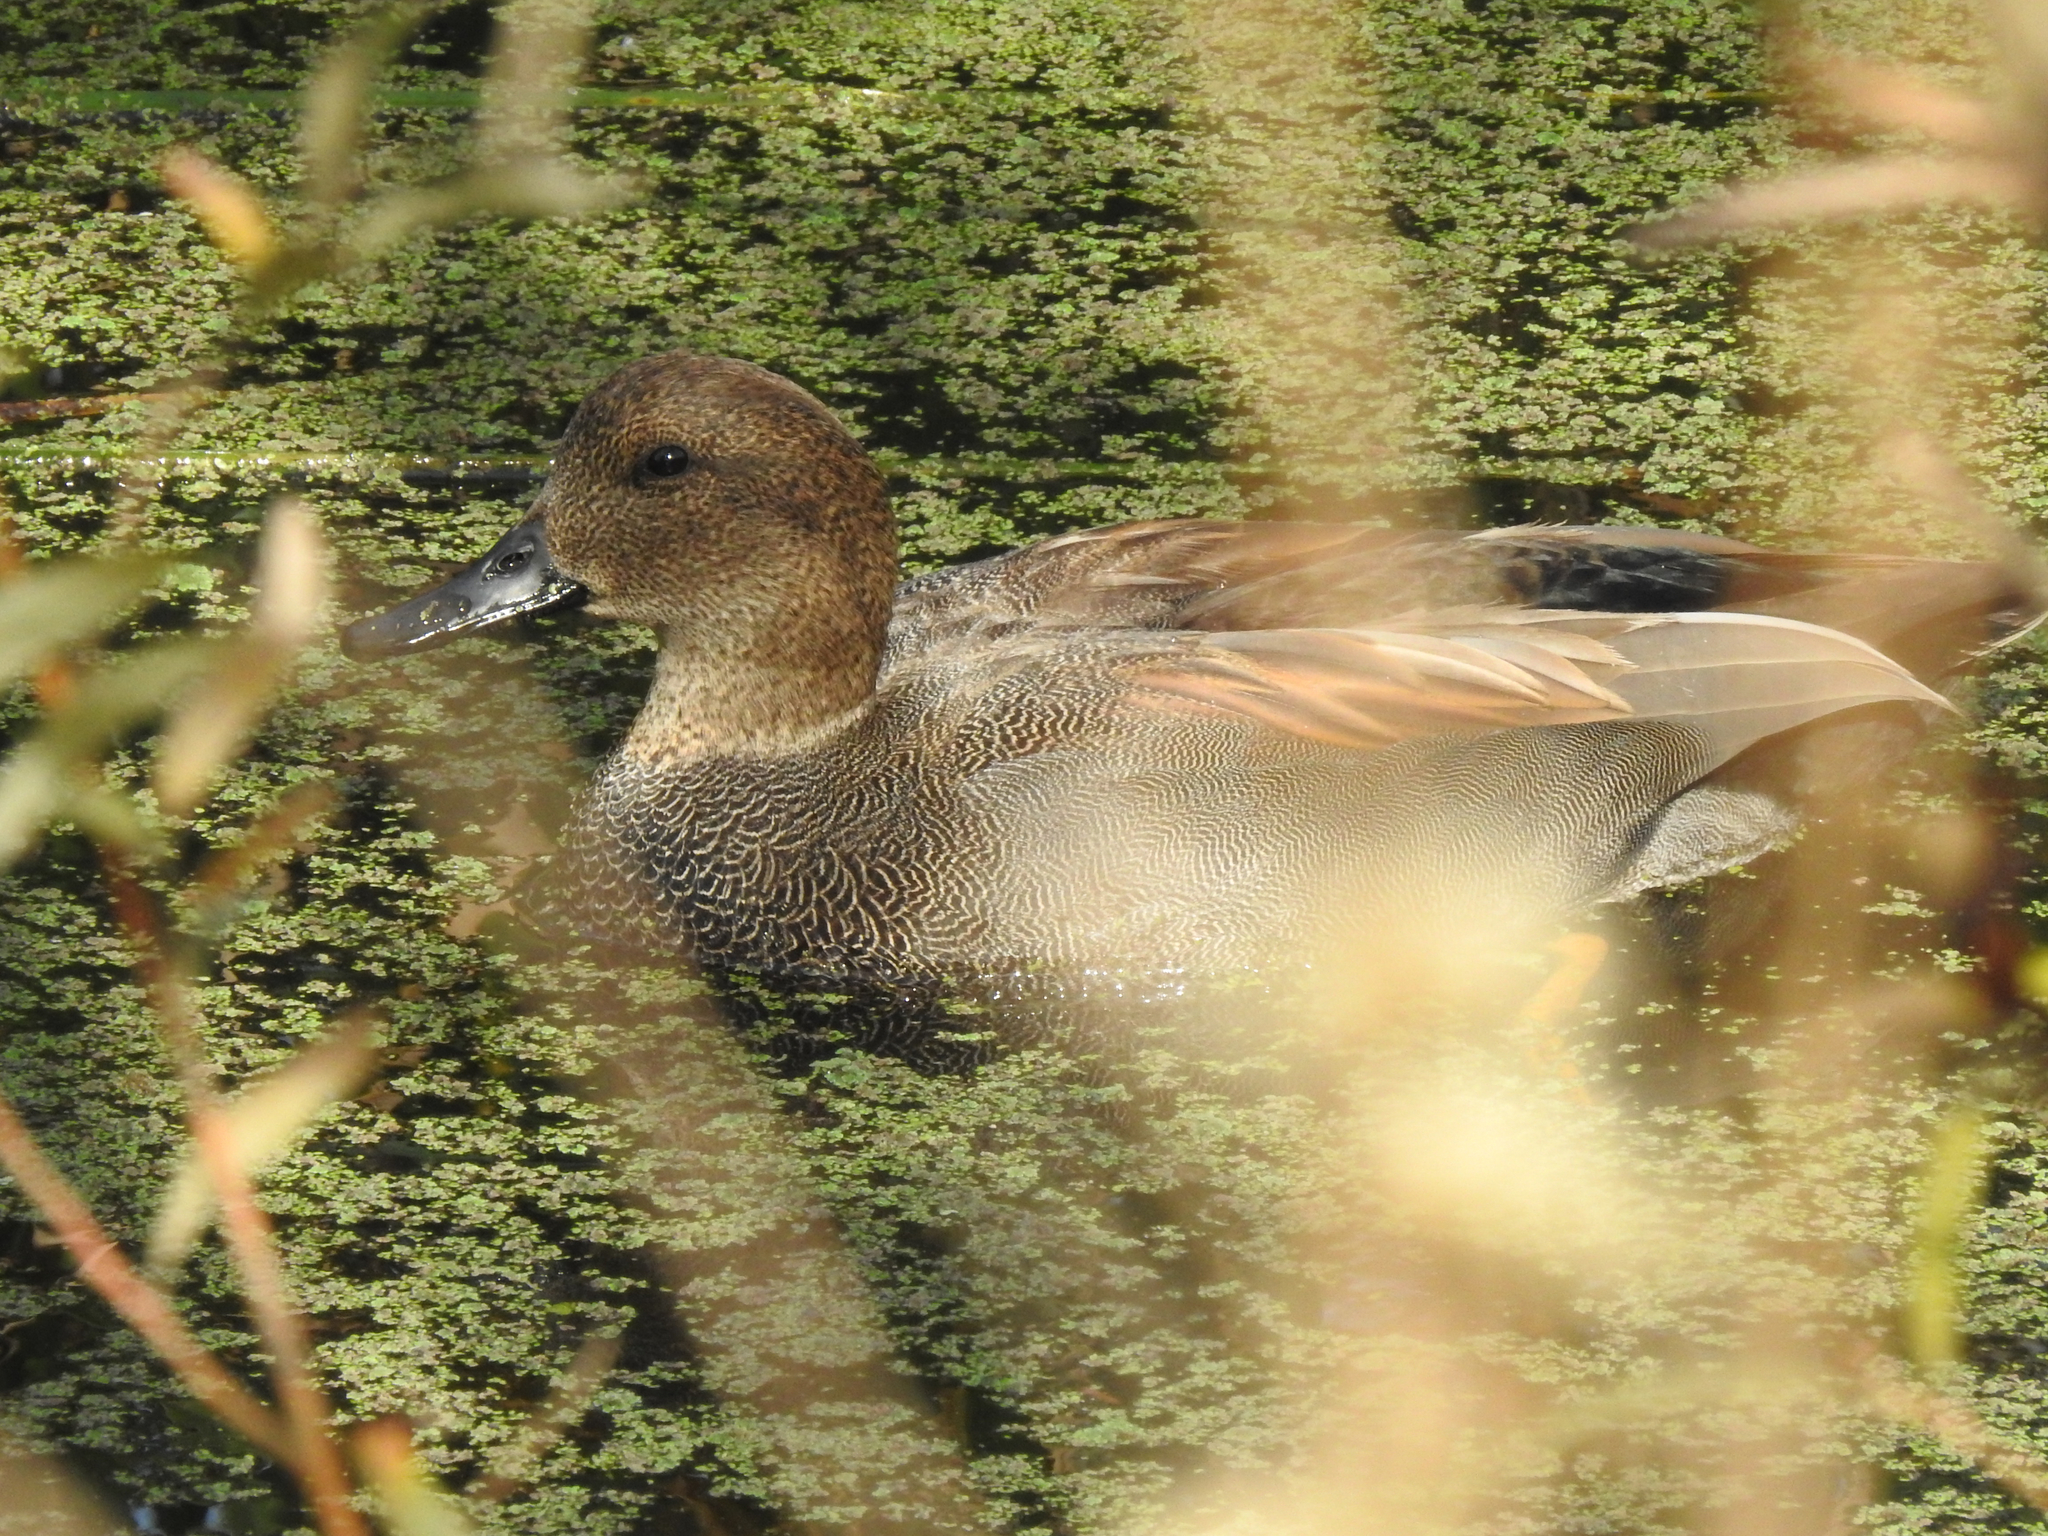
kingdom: Animalia
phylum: Chordata
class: Aves
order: Anseriformes
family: Anatidae
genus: Mareca
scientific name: Mareca strepera
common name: Gadwall
